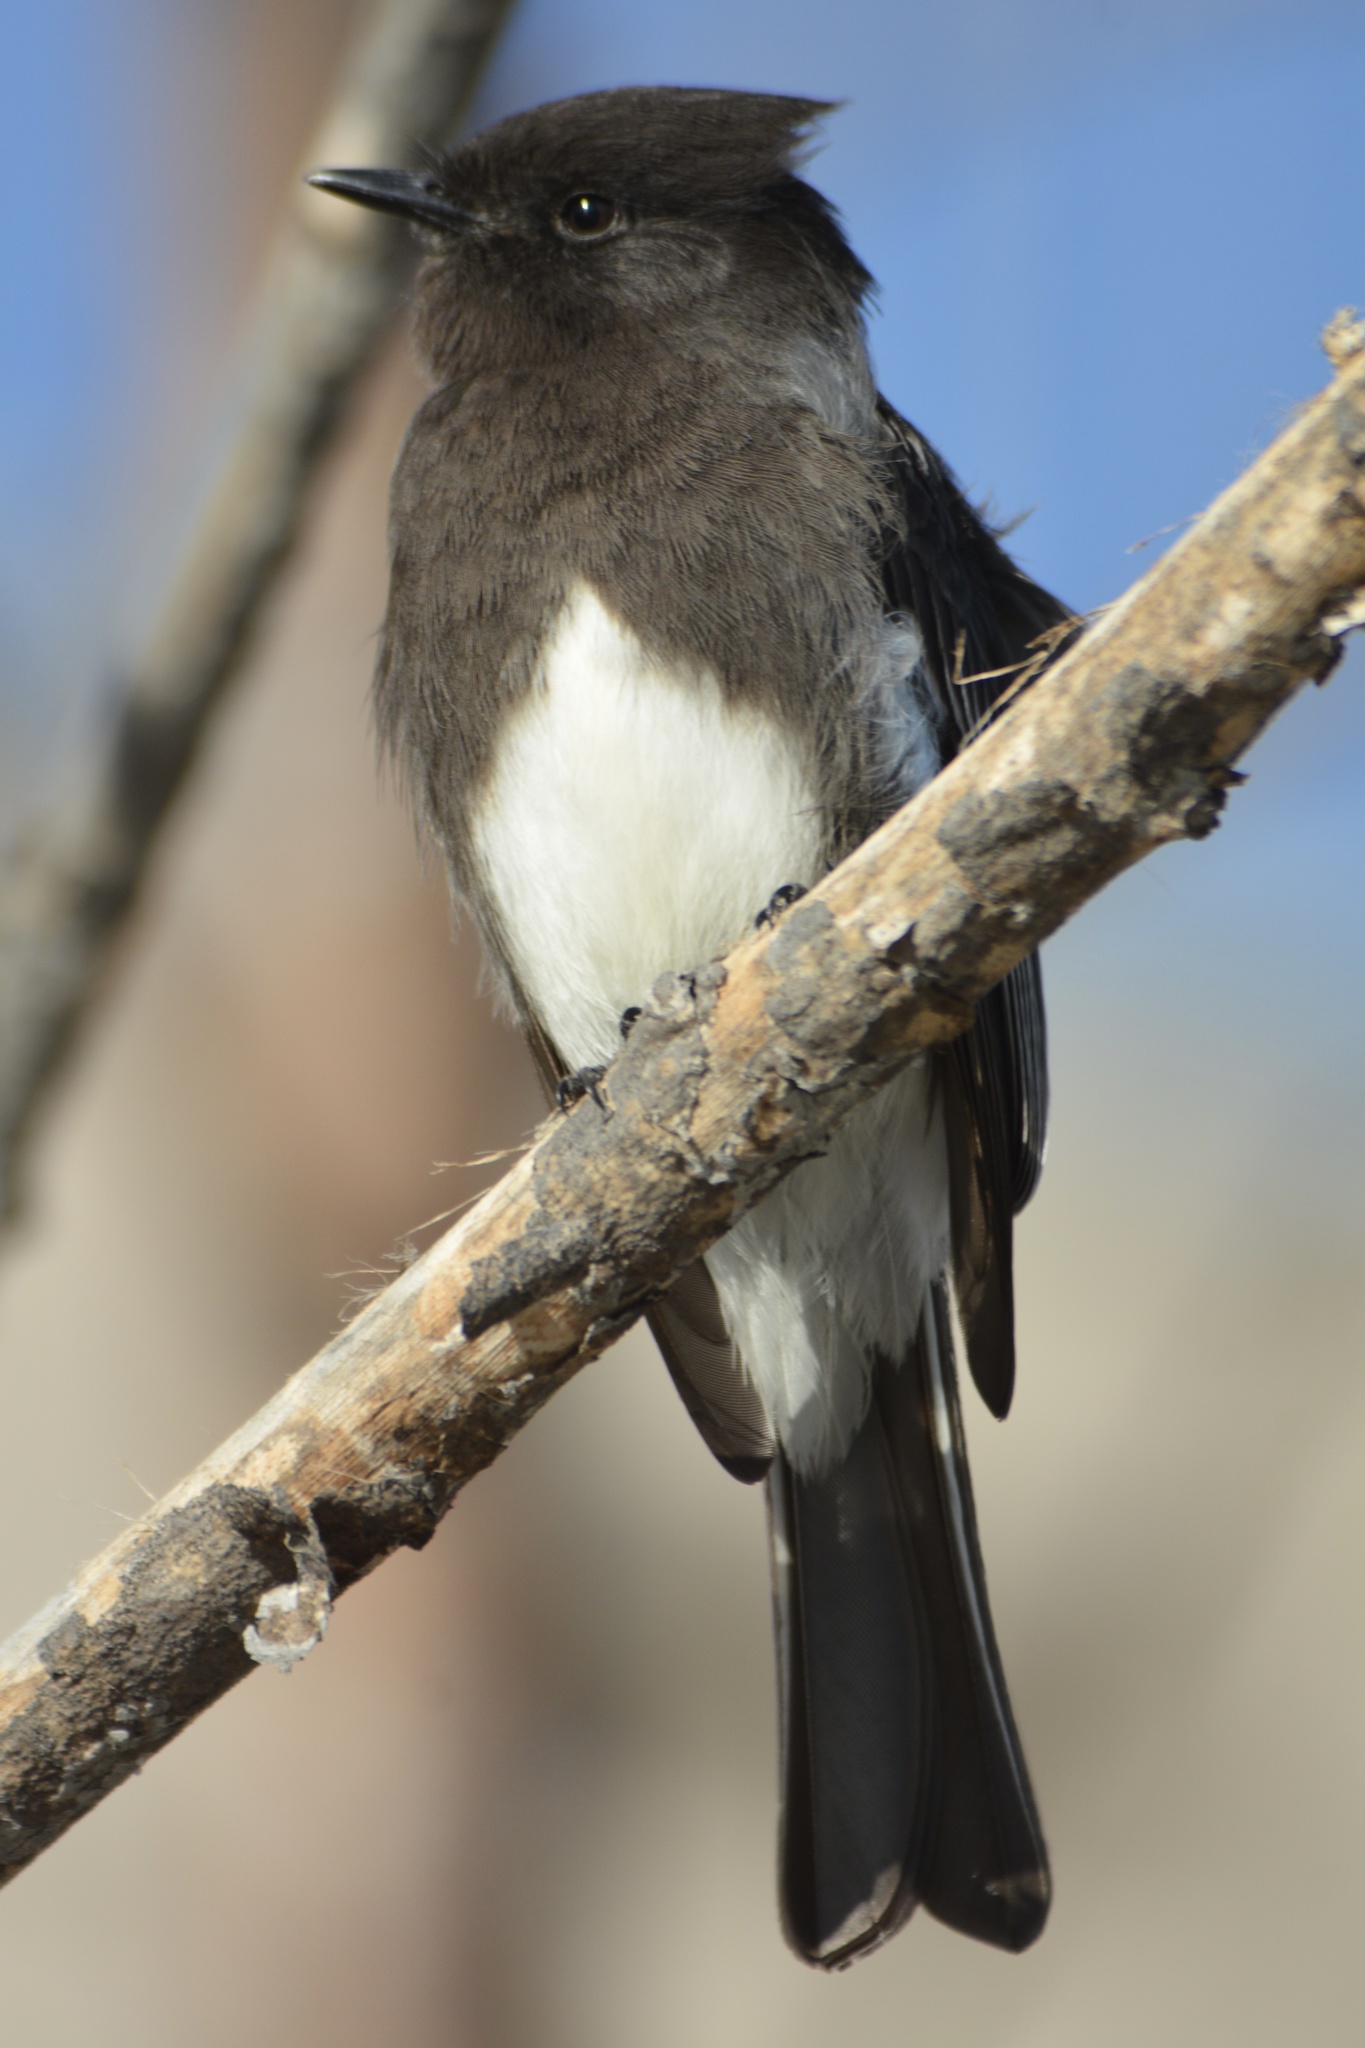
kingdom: Animalia
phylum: Chordata
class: Aves
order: Passeriformes
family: Tyrannidae
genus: Sayornis
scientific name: Sayornis nigricans
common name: Black phoebe
